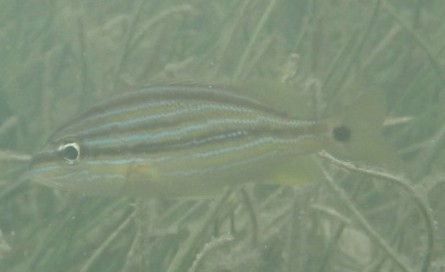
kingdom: Animalia
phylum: Chordata
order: Perciformes
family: Haemulidae
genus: Haemulon
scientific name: Haemulon sciurus
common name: Bluestriped grunt
